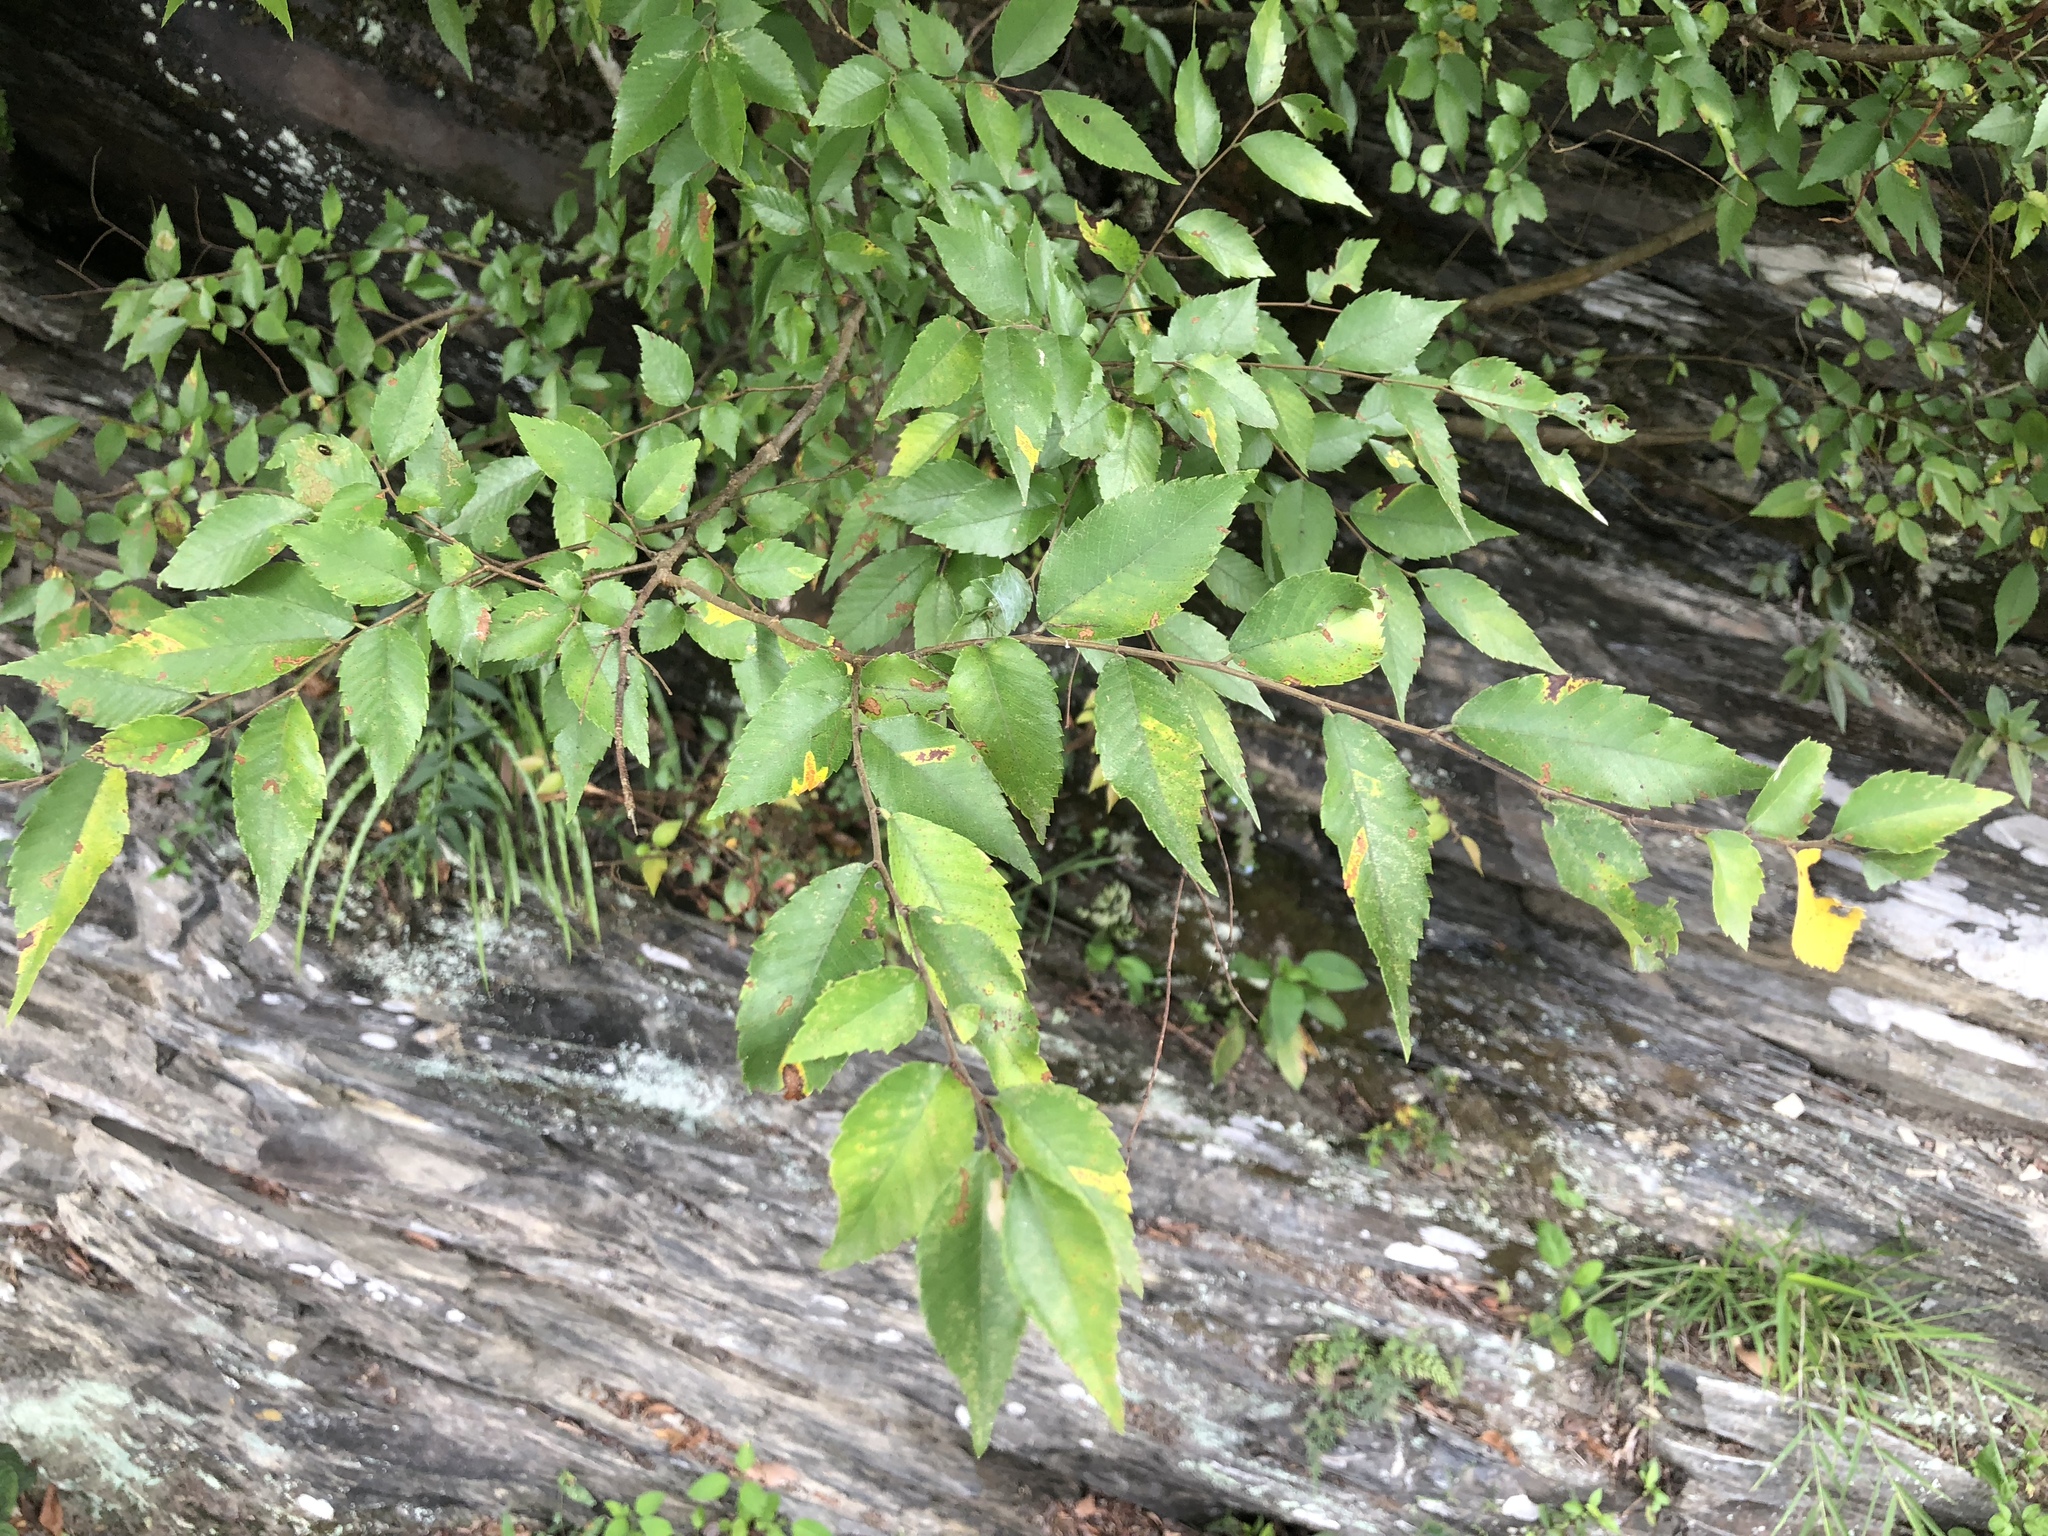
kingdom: Plantae
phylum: Tracheophyta
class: Magnoliopsida
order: Rosales
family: Ulmaceae
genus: Zelkova
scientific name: Zelkova serrata
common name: Japanese zelkova
